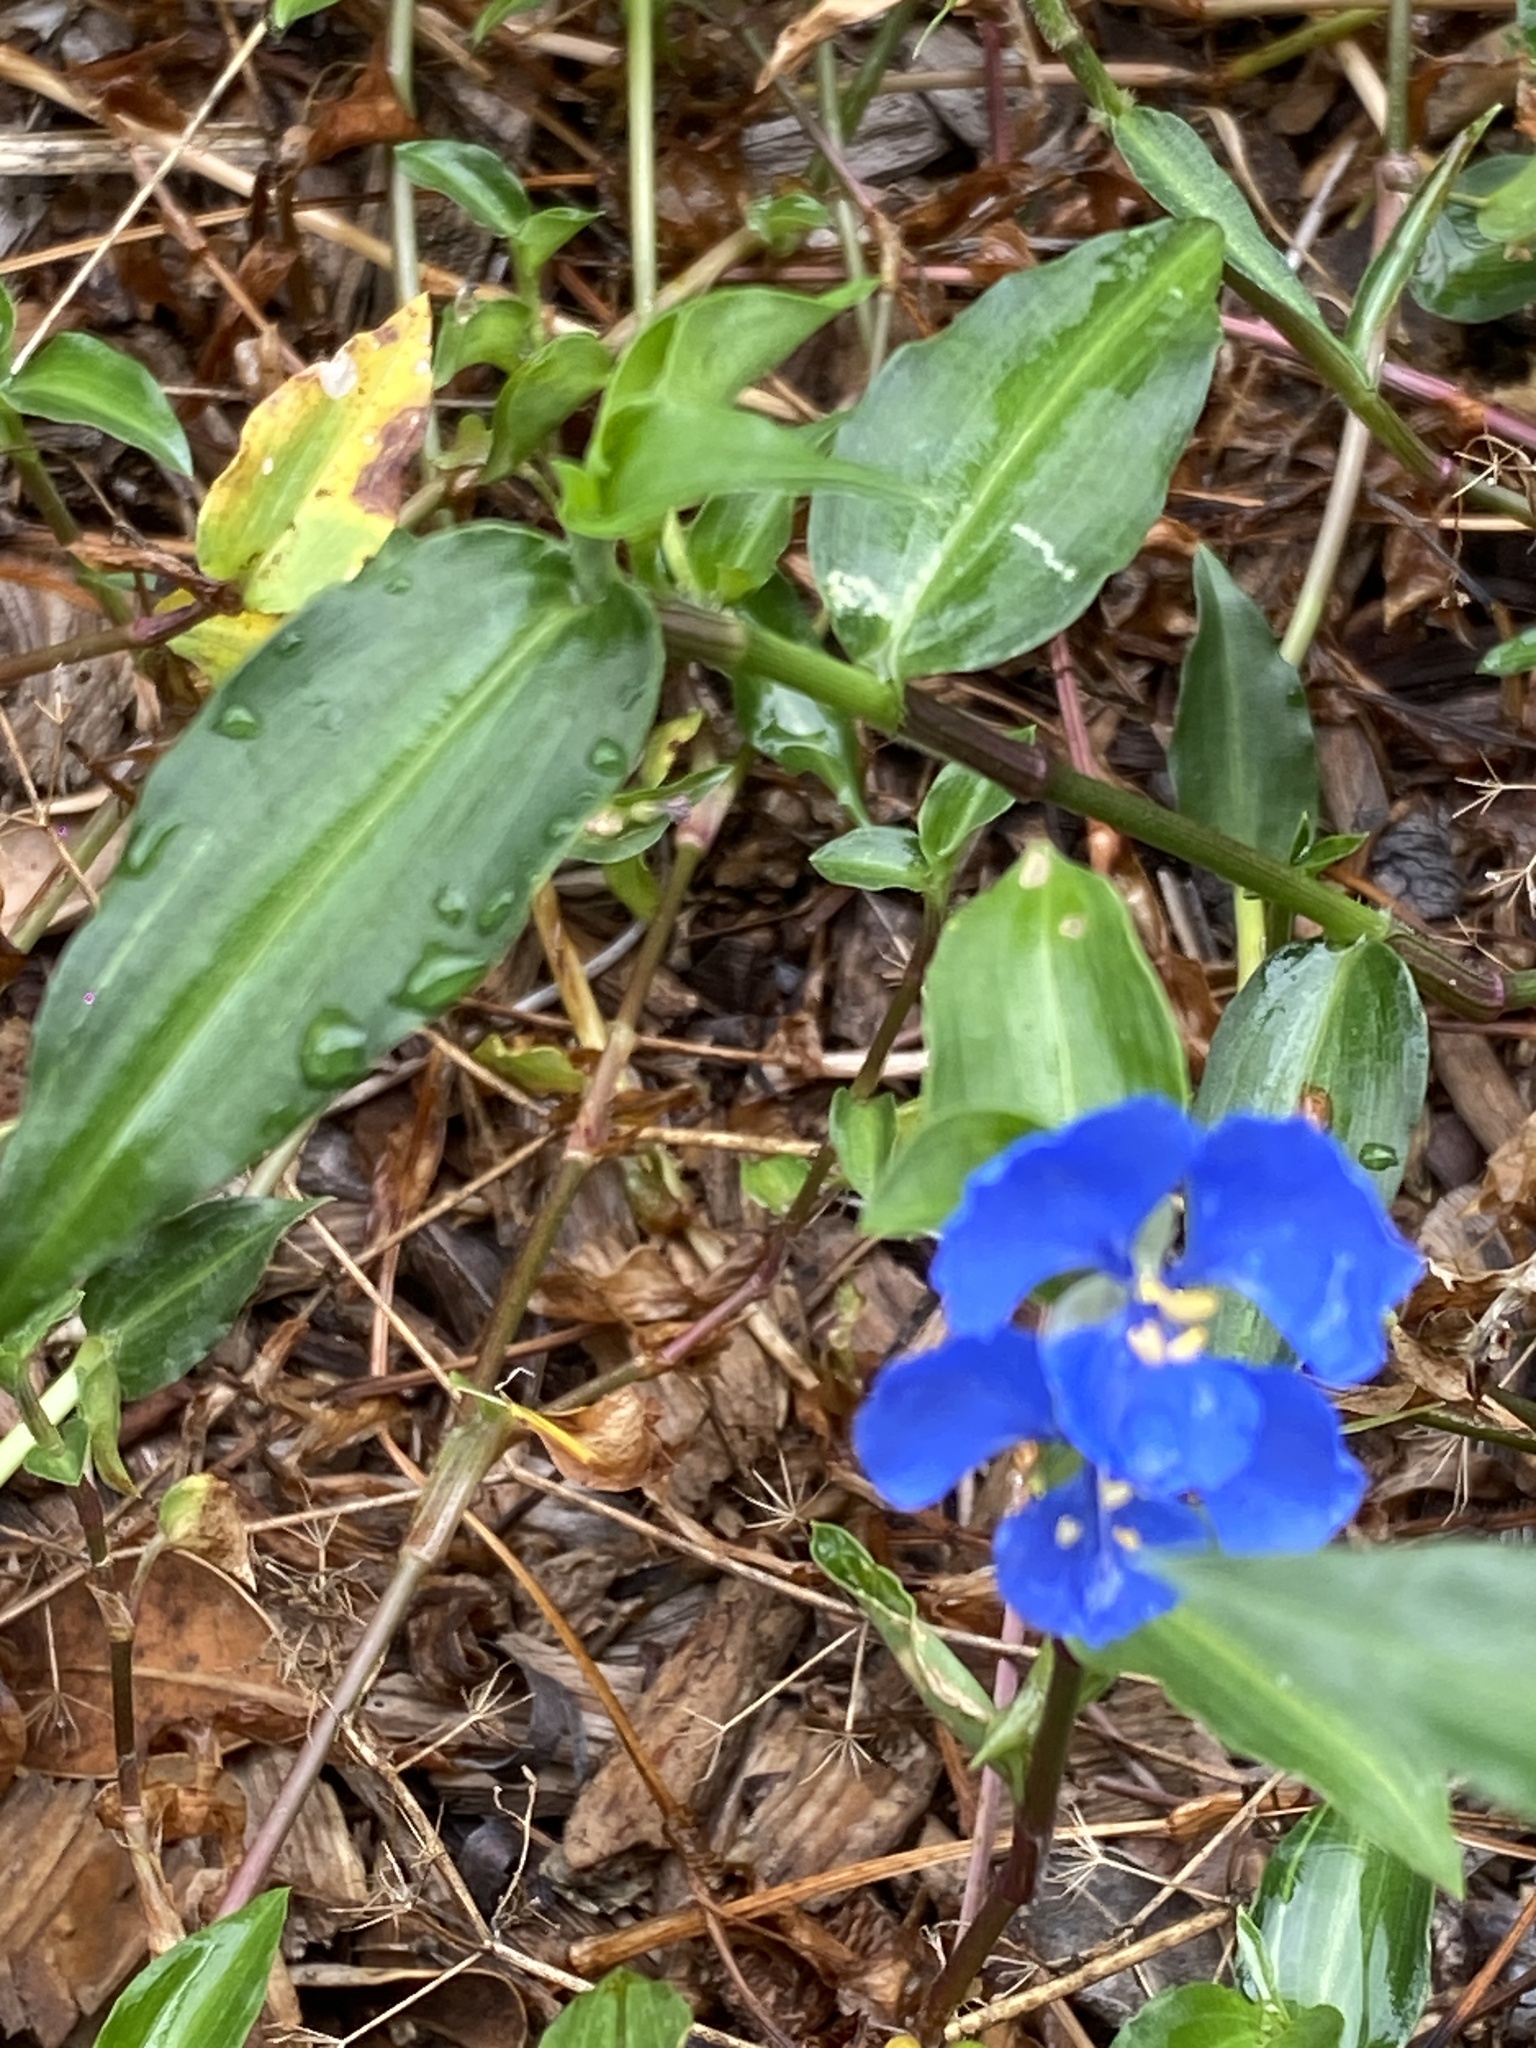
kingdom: Plantae
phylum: Tracheophyta
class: Liliopsida
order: Commelinales
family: Commelinaceae
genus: Commelina
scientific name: Commelina cyanea
